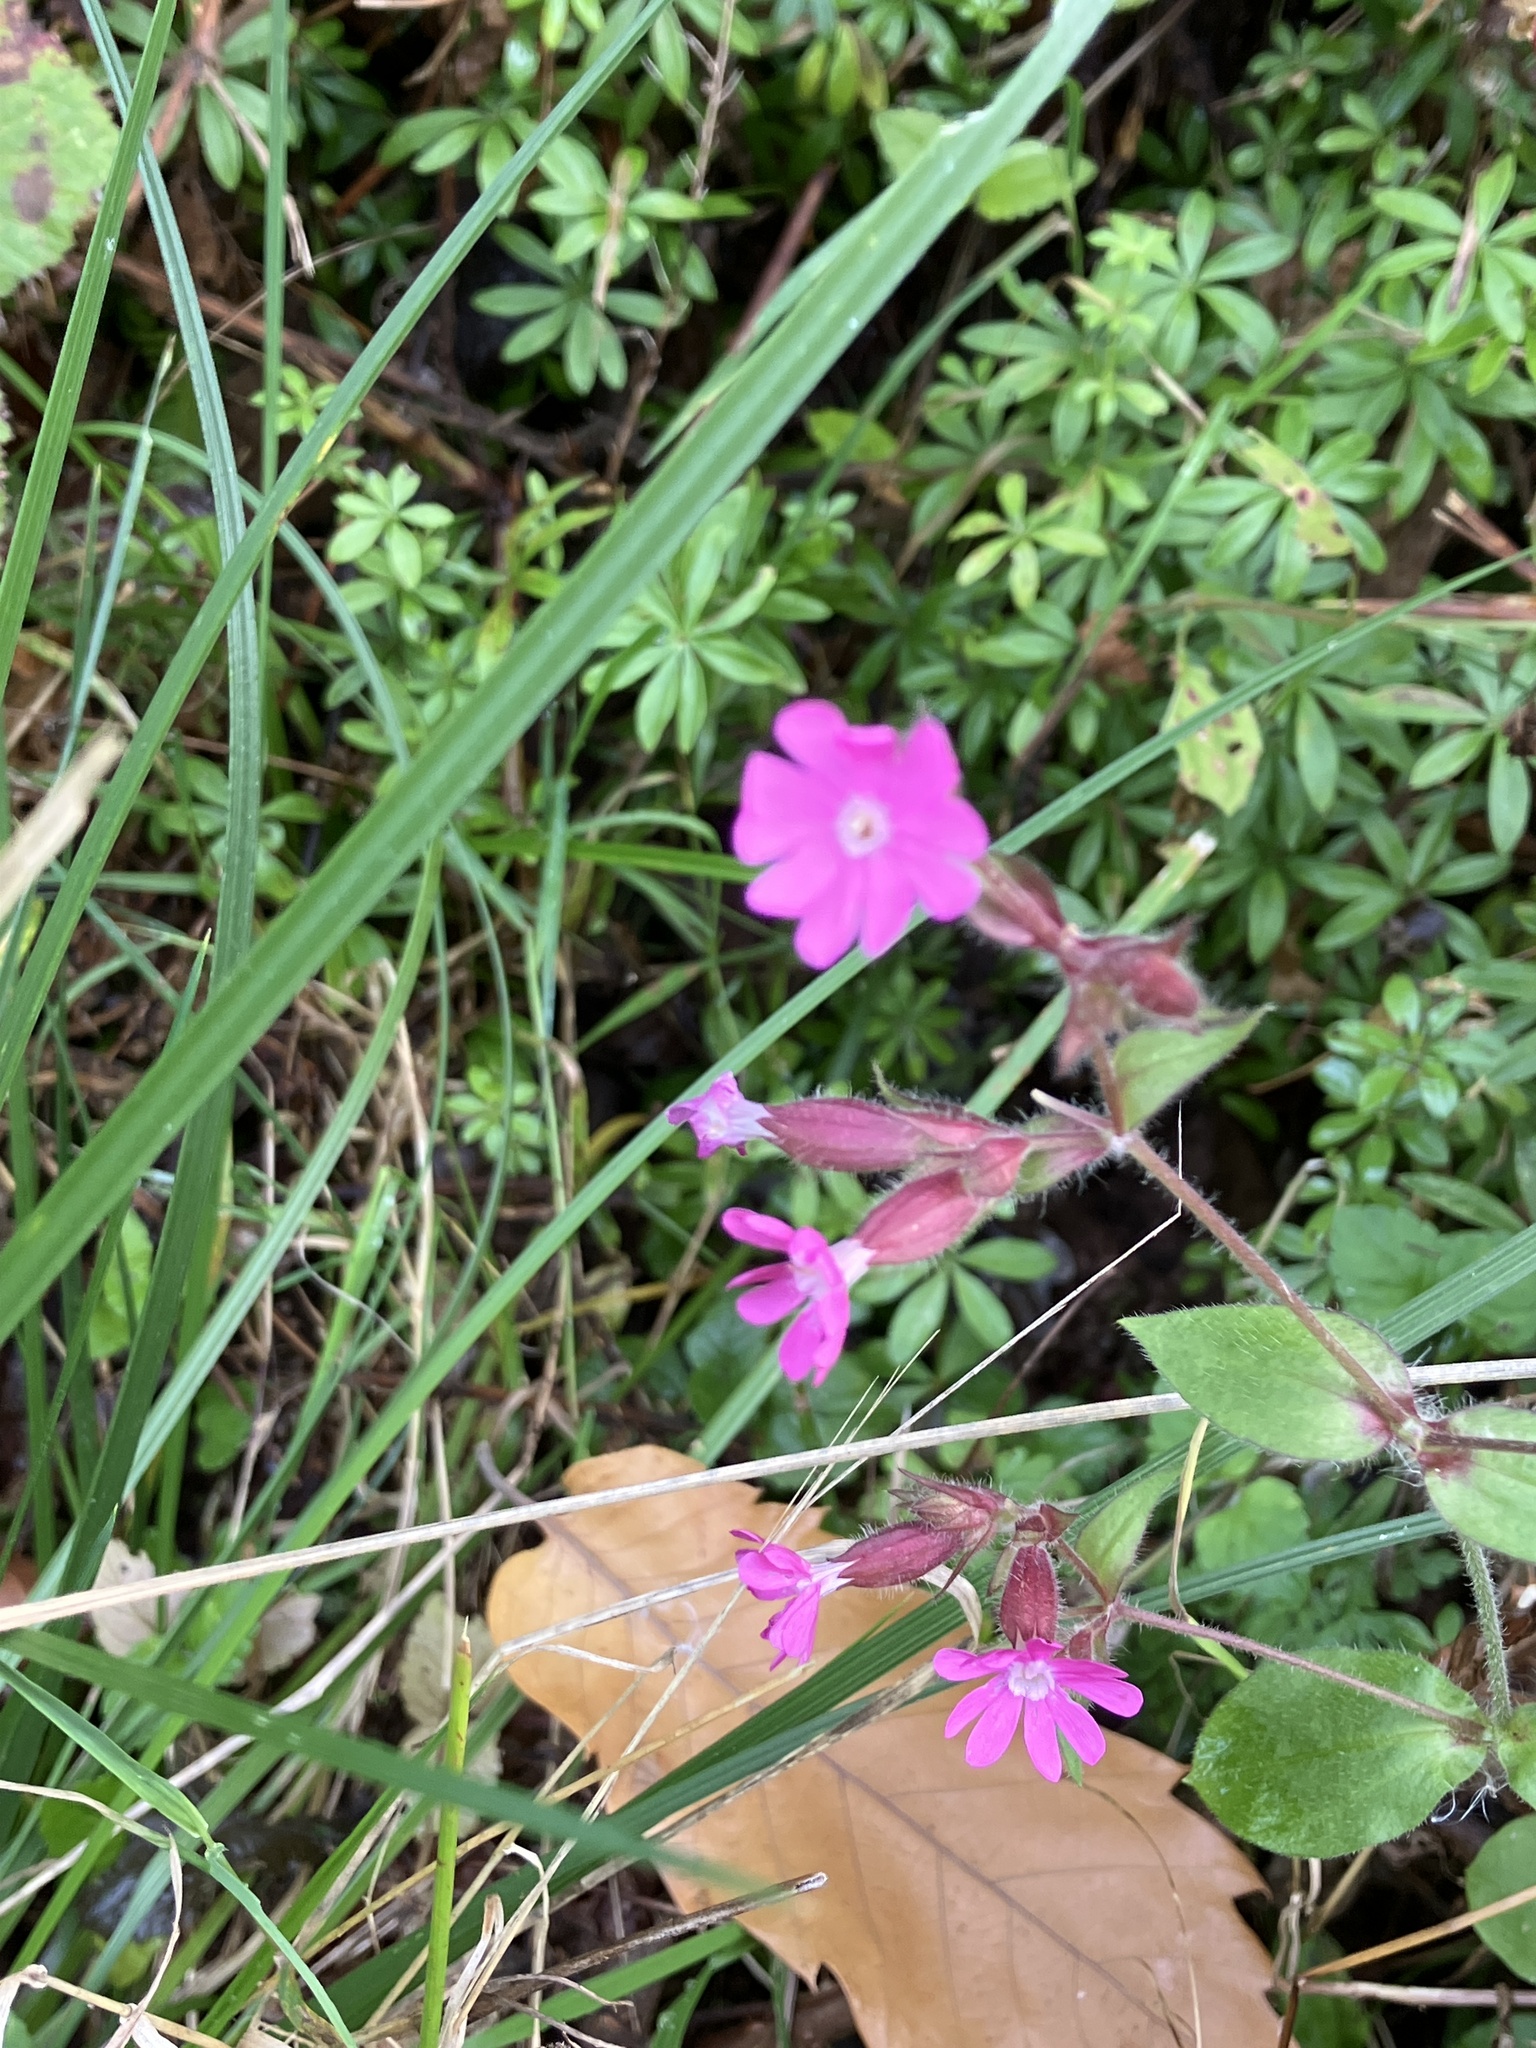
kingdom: Plantae
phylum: Tracheophyta
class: Magnoliopsida
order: Caryophyllales
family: Caryophyllaceae
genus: Silene
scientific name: Silene dioica
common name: Red campion
